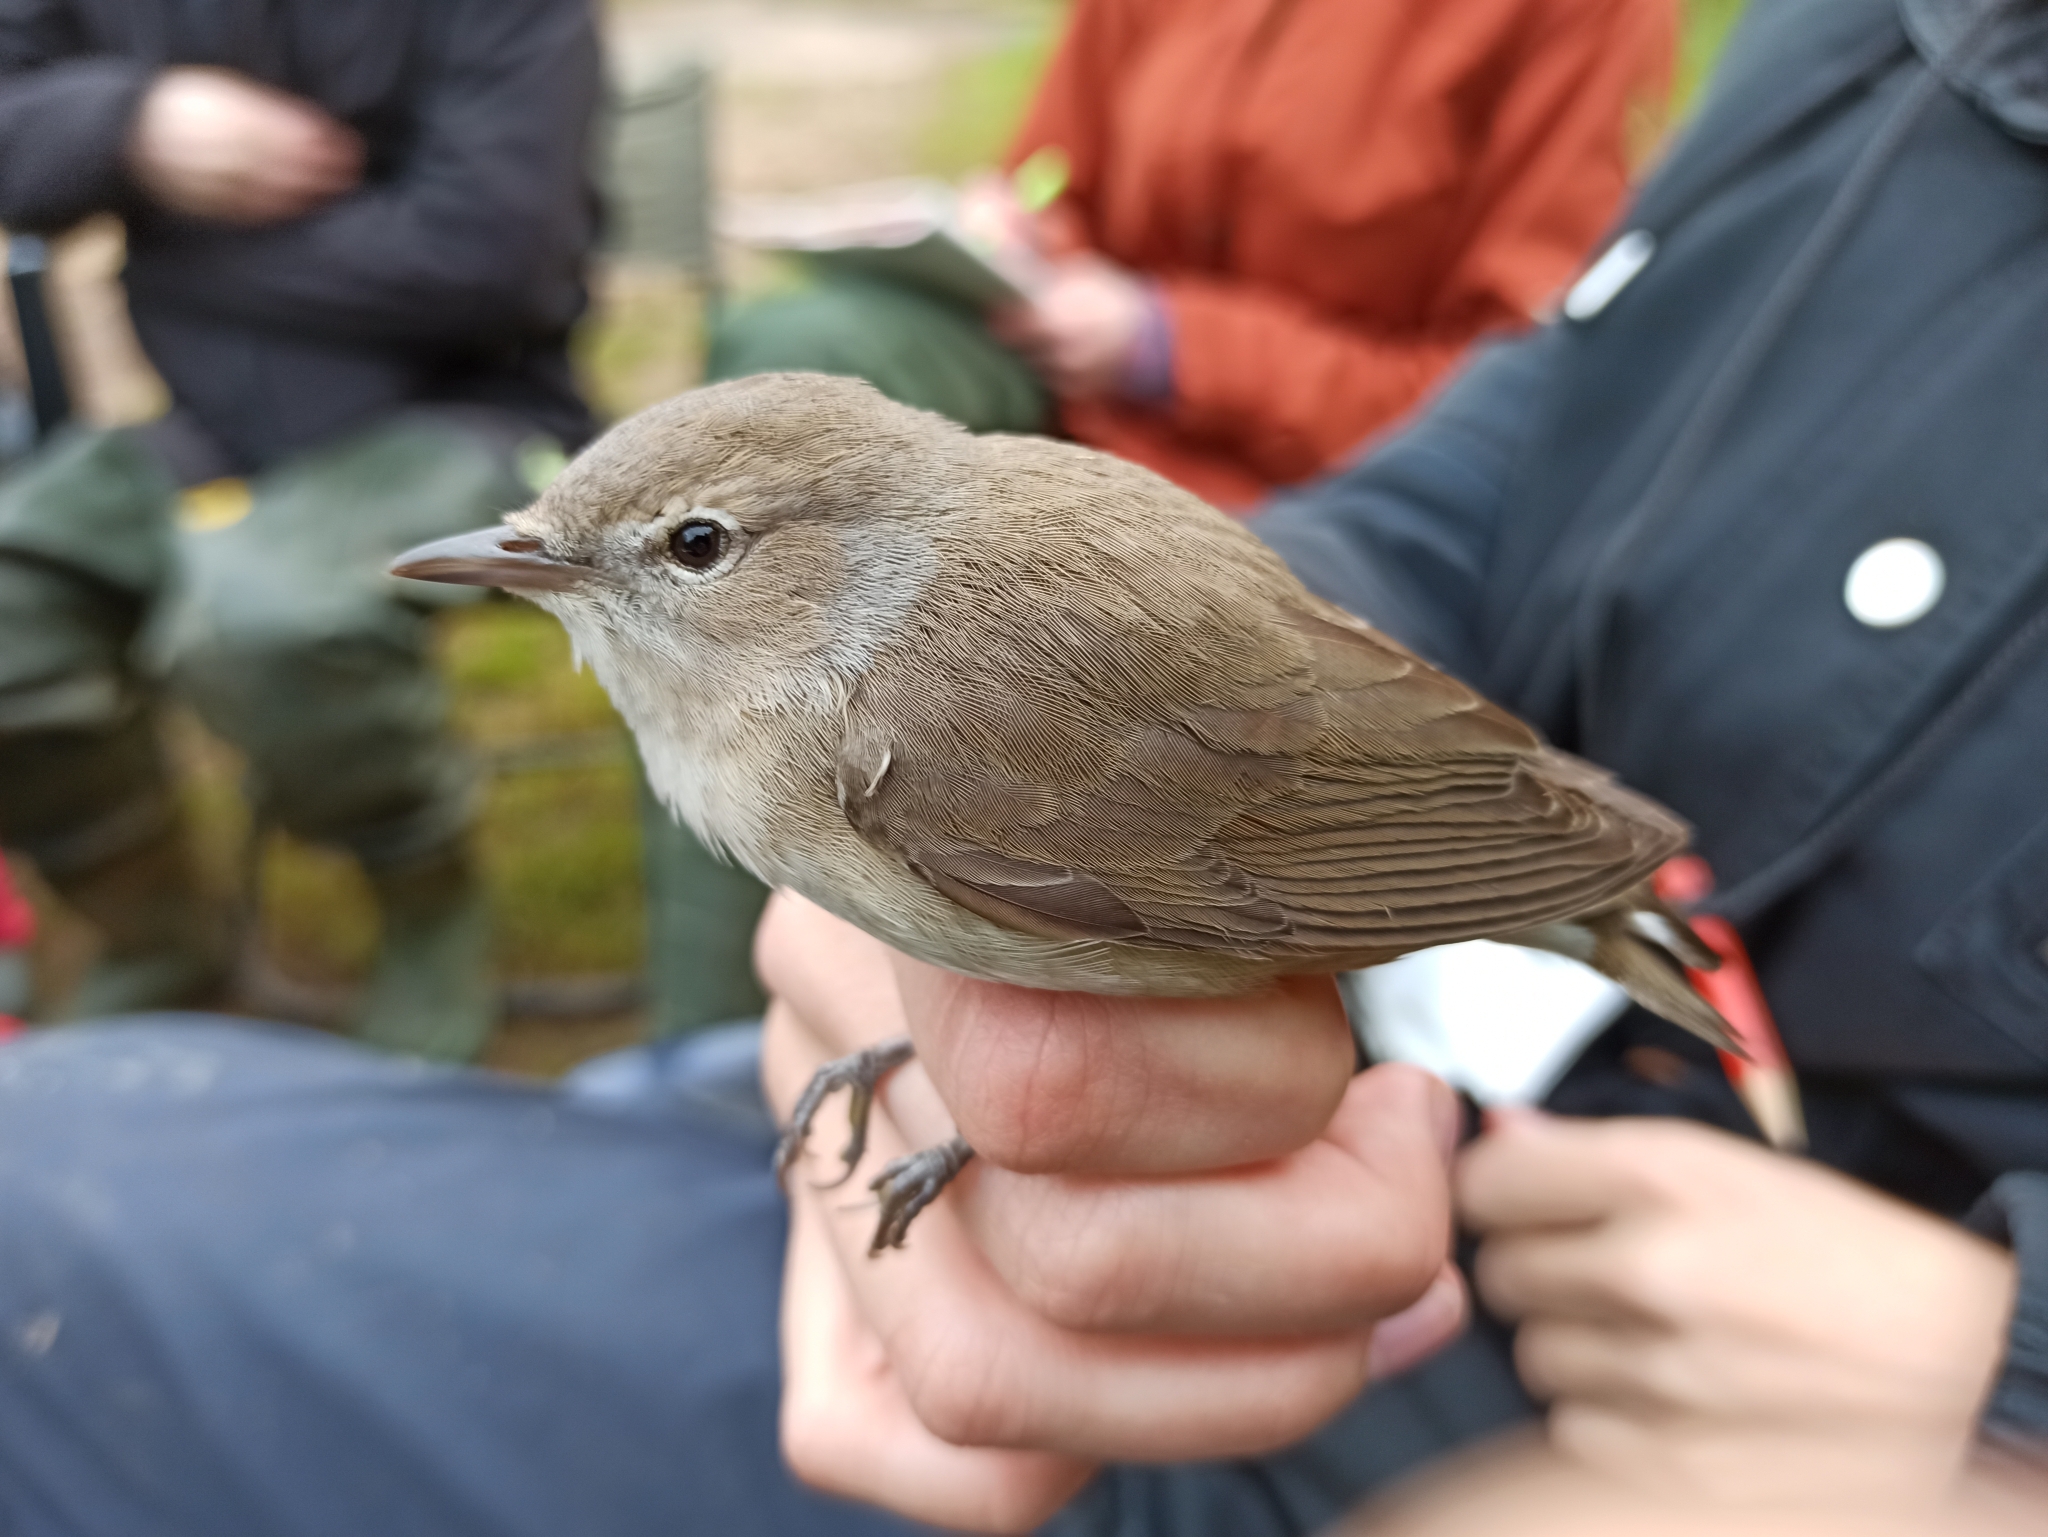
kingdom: Animalia
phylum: Chordata
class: Aves
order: Passeriformes
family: Sylviidae
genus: Sylvia
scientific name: Sylvia borin
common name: Garden warbler
